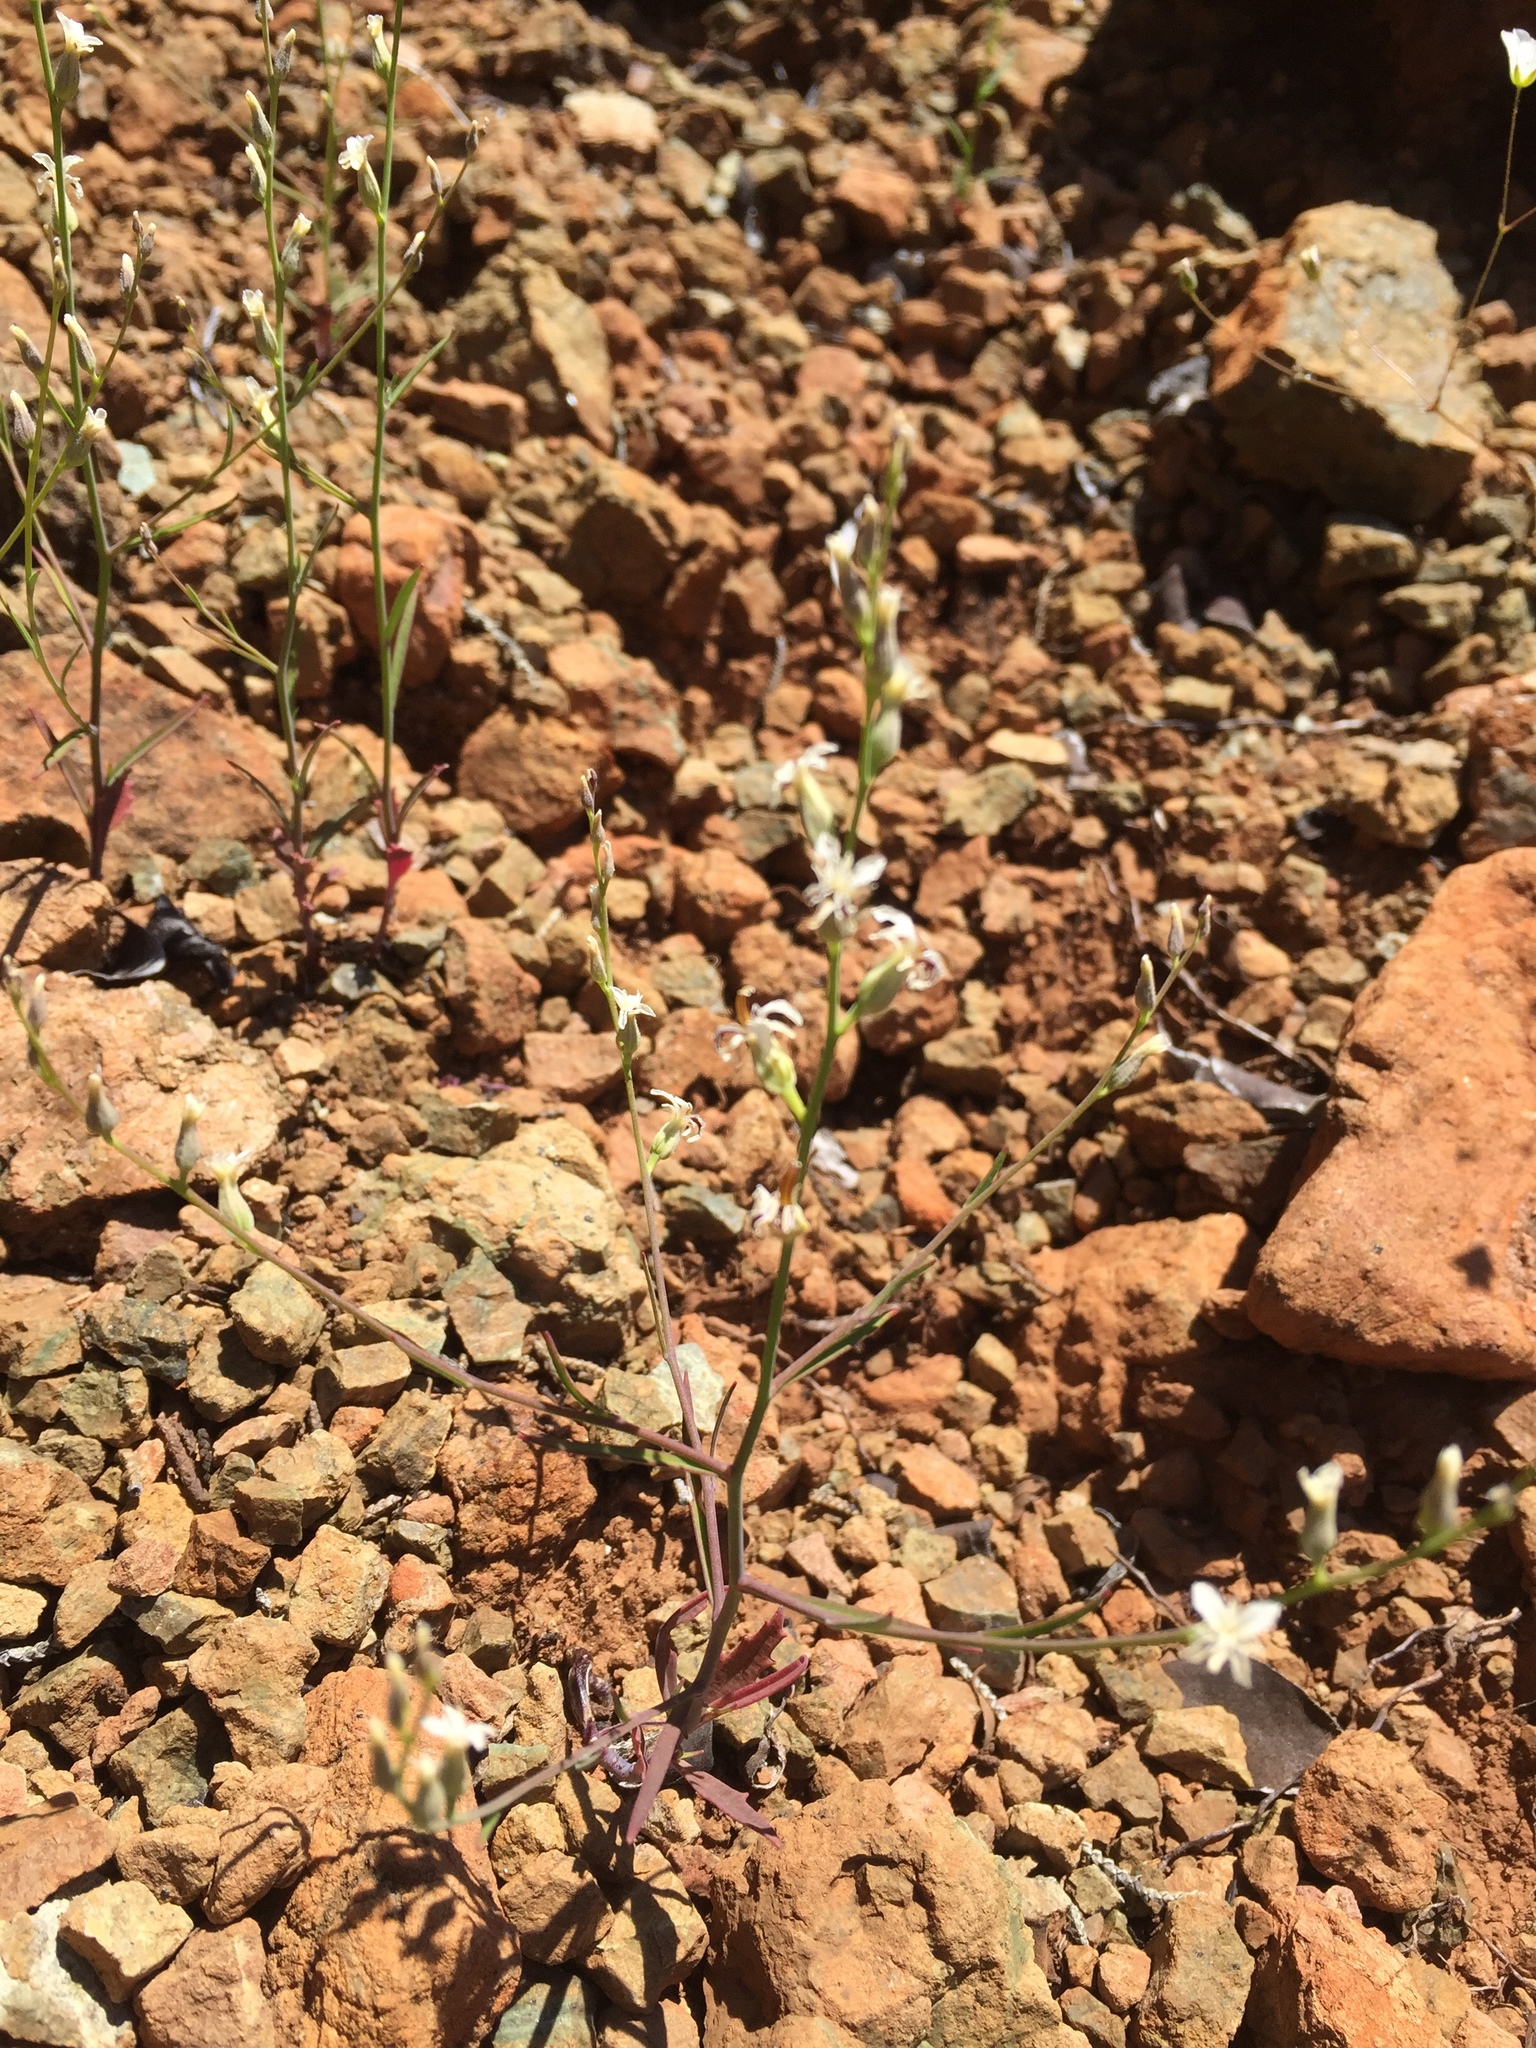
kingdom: Plantae
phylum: Tracheophyta
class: Magnoliopsida
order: Brassicales
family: Brassicaceae
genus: Streptanthus
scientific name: Streptanthus barbiger
